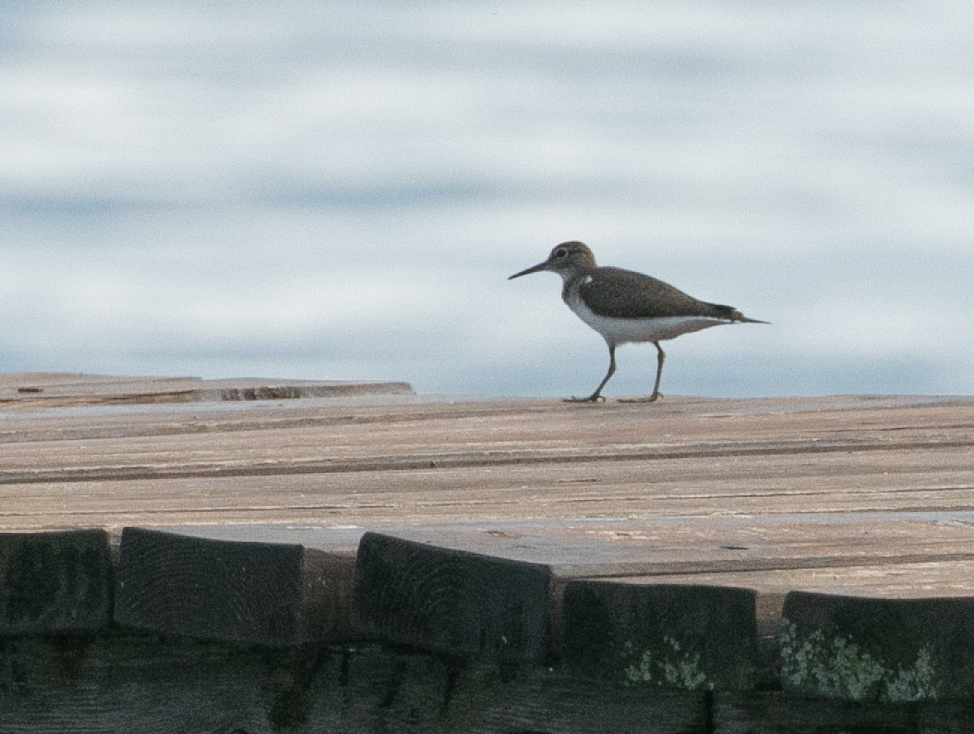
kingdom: Animalia
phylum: Chordata
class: Aves
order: Charadriiformes
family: Scolopacidae
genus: Actitis
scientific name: Actitis hypoleucos
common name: Common sandpiper
